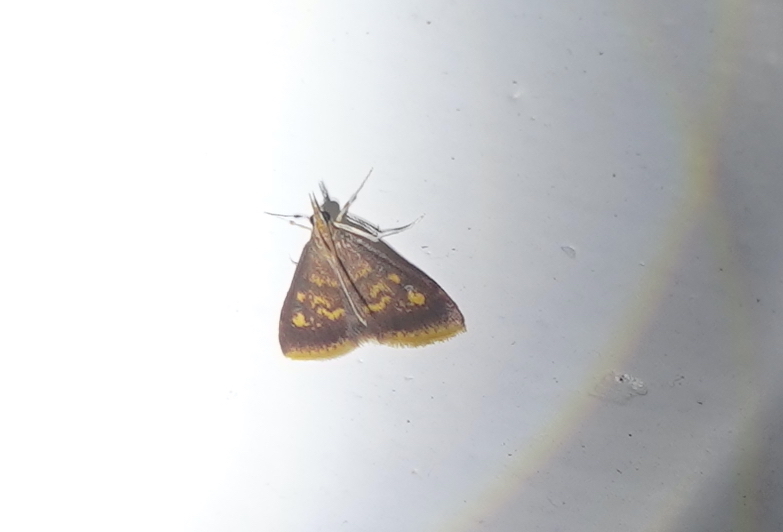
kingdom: Animalia
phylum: Arthropoda
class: Insecta
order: Lepidoptera
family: Crambidae
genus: Pyrausta
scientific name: Pyrausta acrionalis
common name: Mint-loving pyrausta moth
